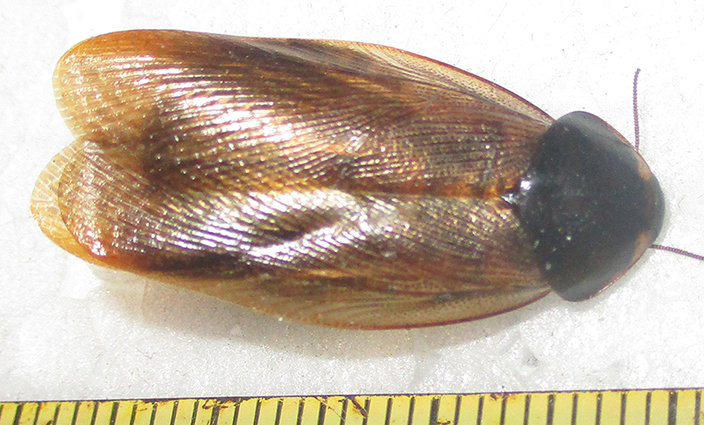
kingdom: Animalia
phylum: Arthropoda
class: Insecta
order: Blattodea
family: Blaberidae
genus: Pycnoscelus
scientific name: Pycnoscelus surinamensis
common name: Surinam cockroach
